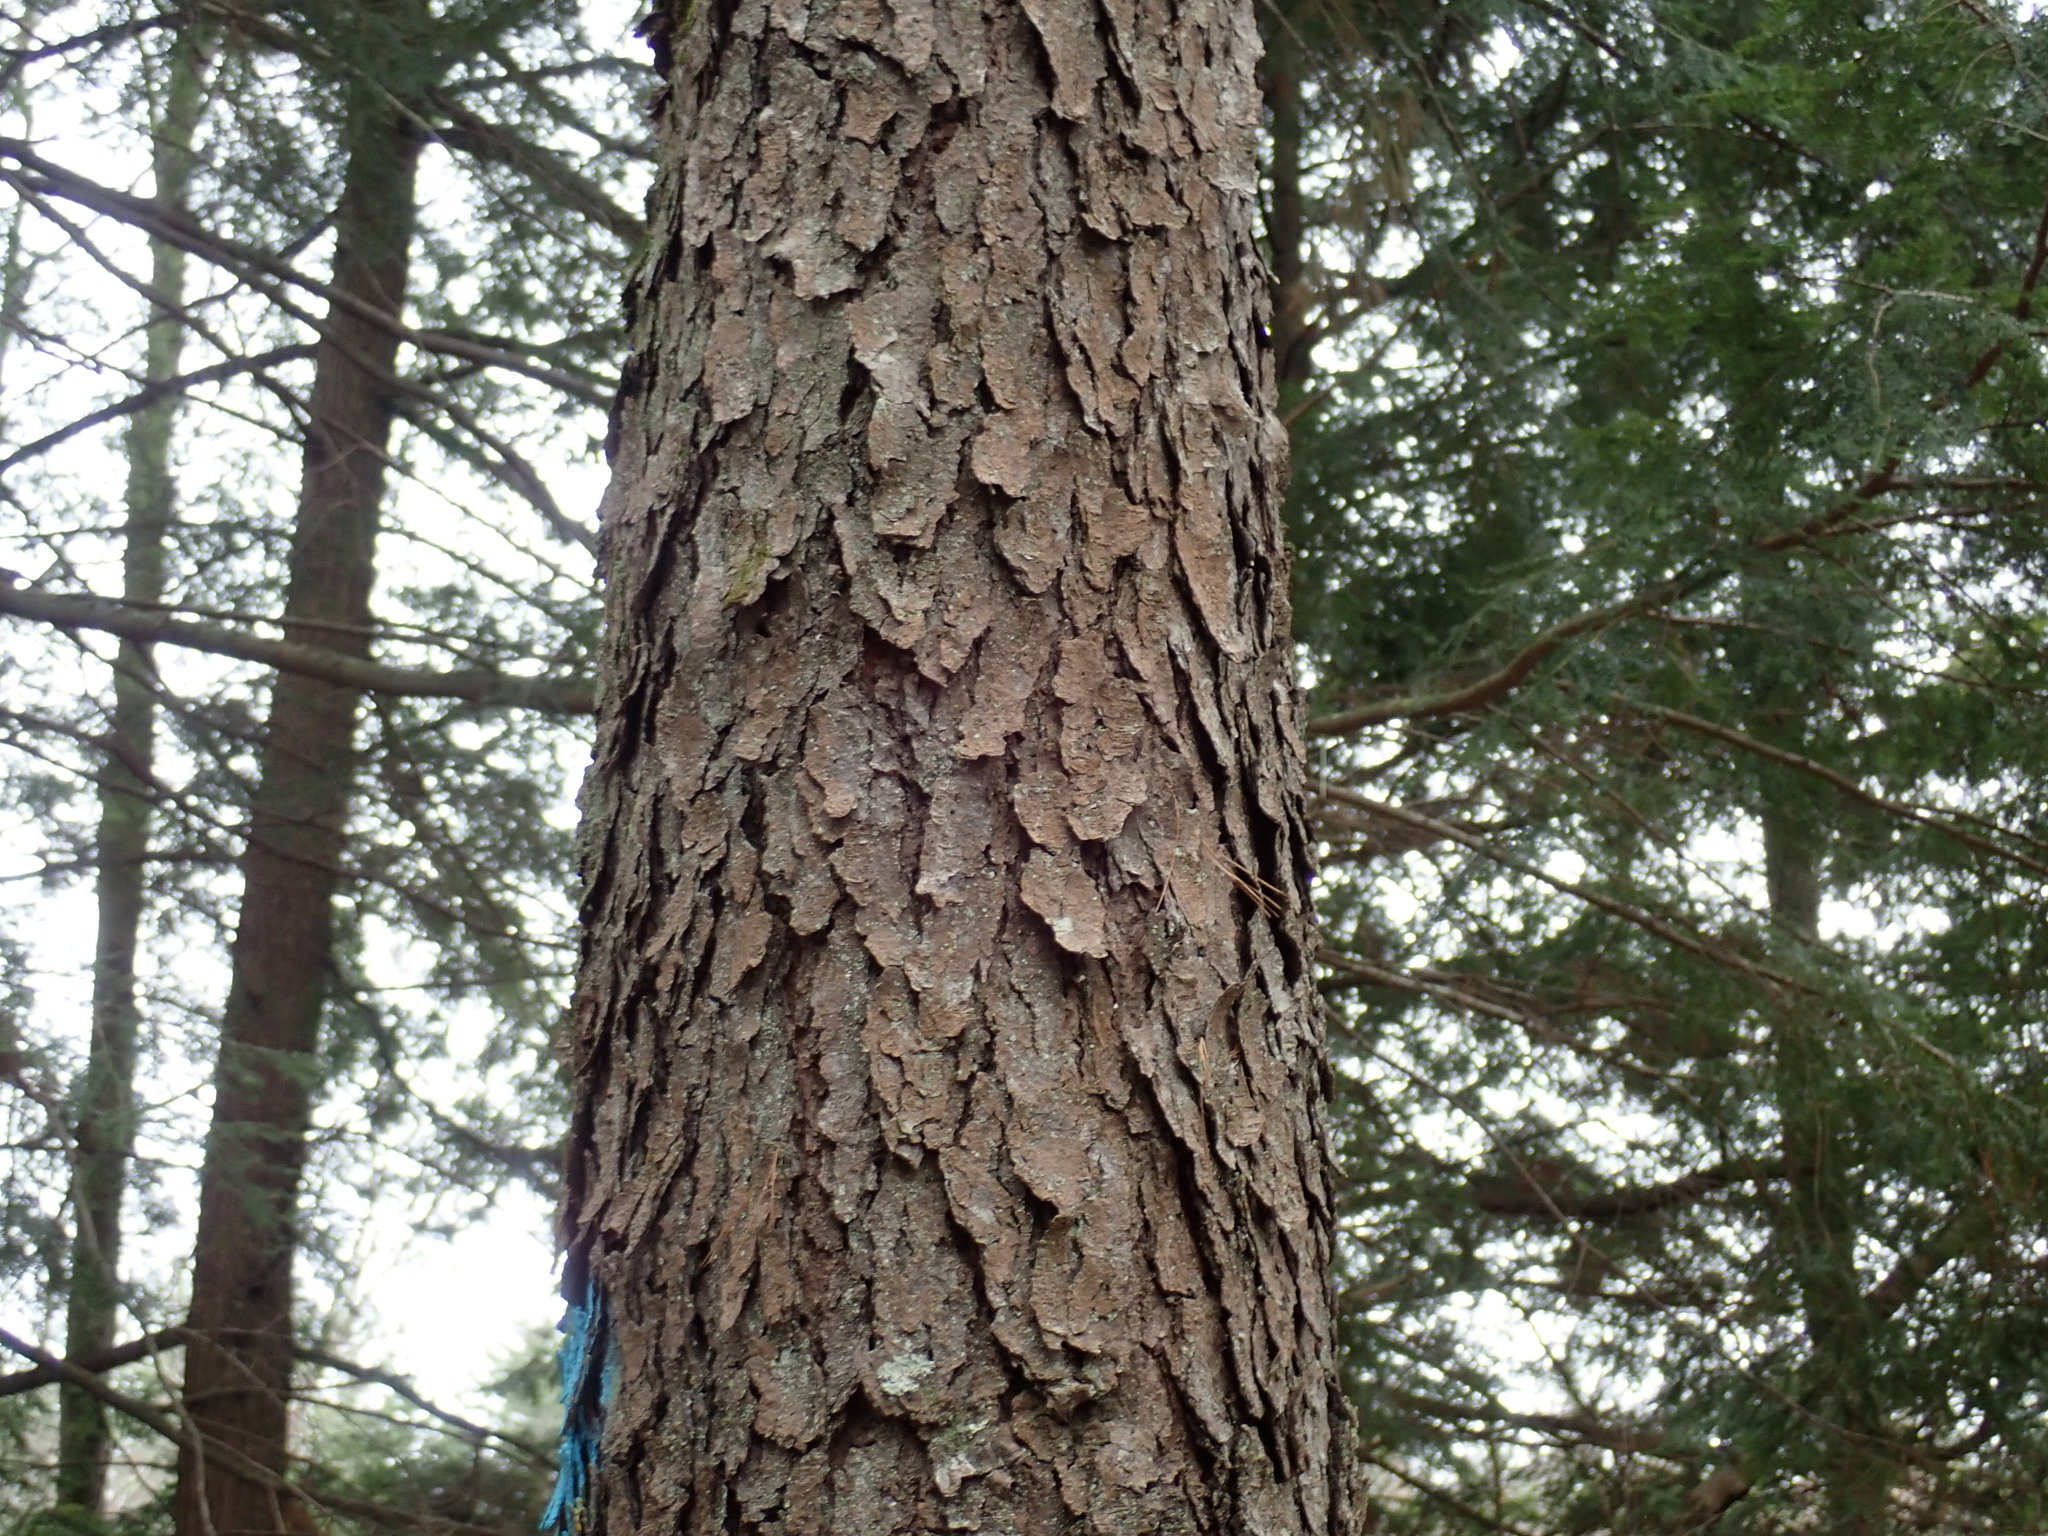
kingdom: Plantae
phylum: Tracheophyta
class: Magnoliopsida
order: Rosales
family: Rosaceae
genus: Prunus
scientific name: Prunus serotina
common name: Black cherry
